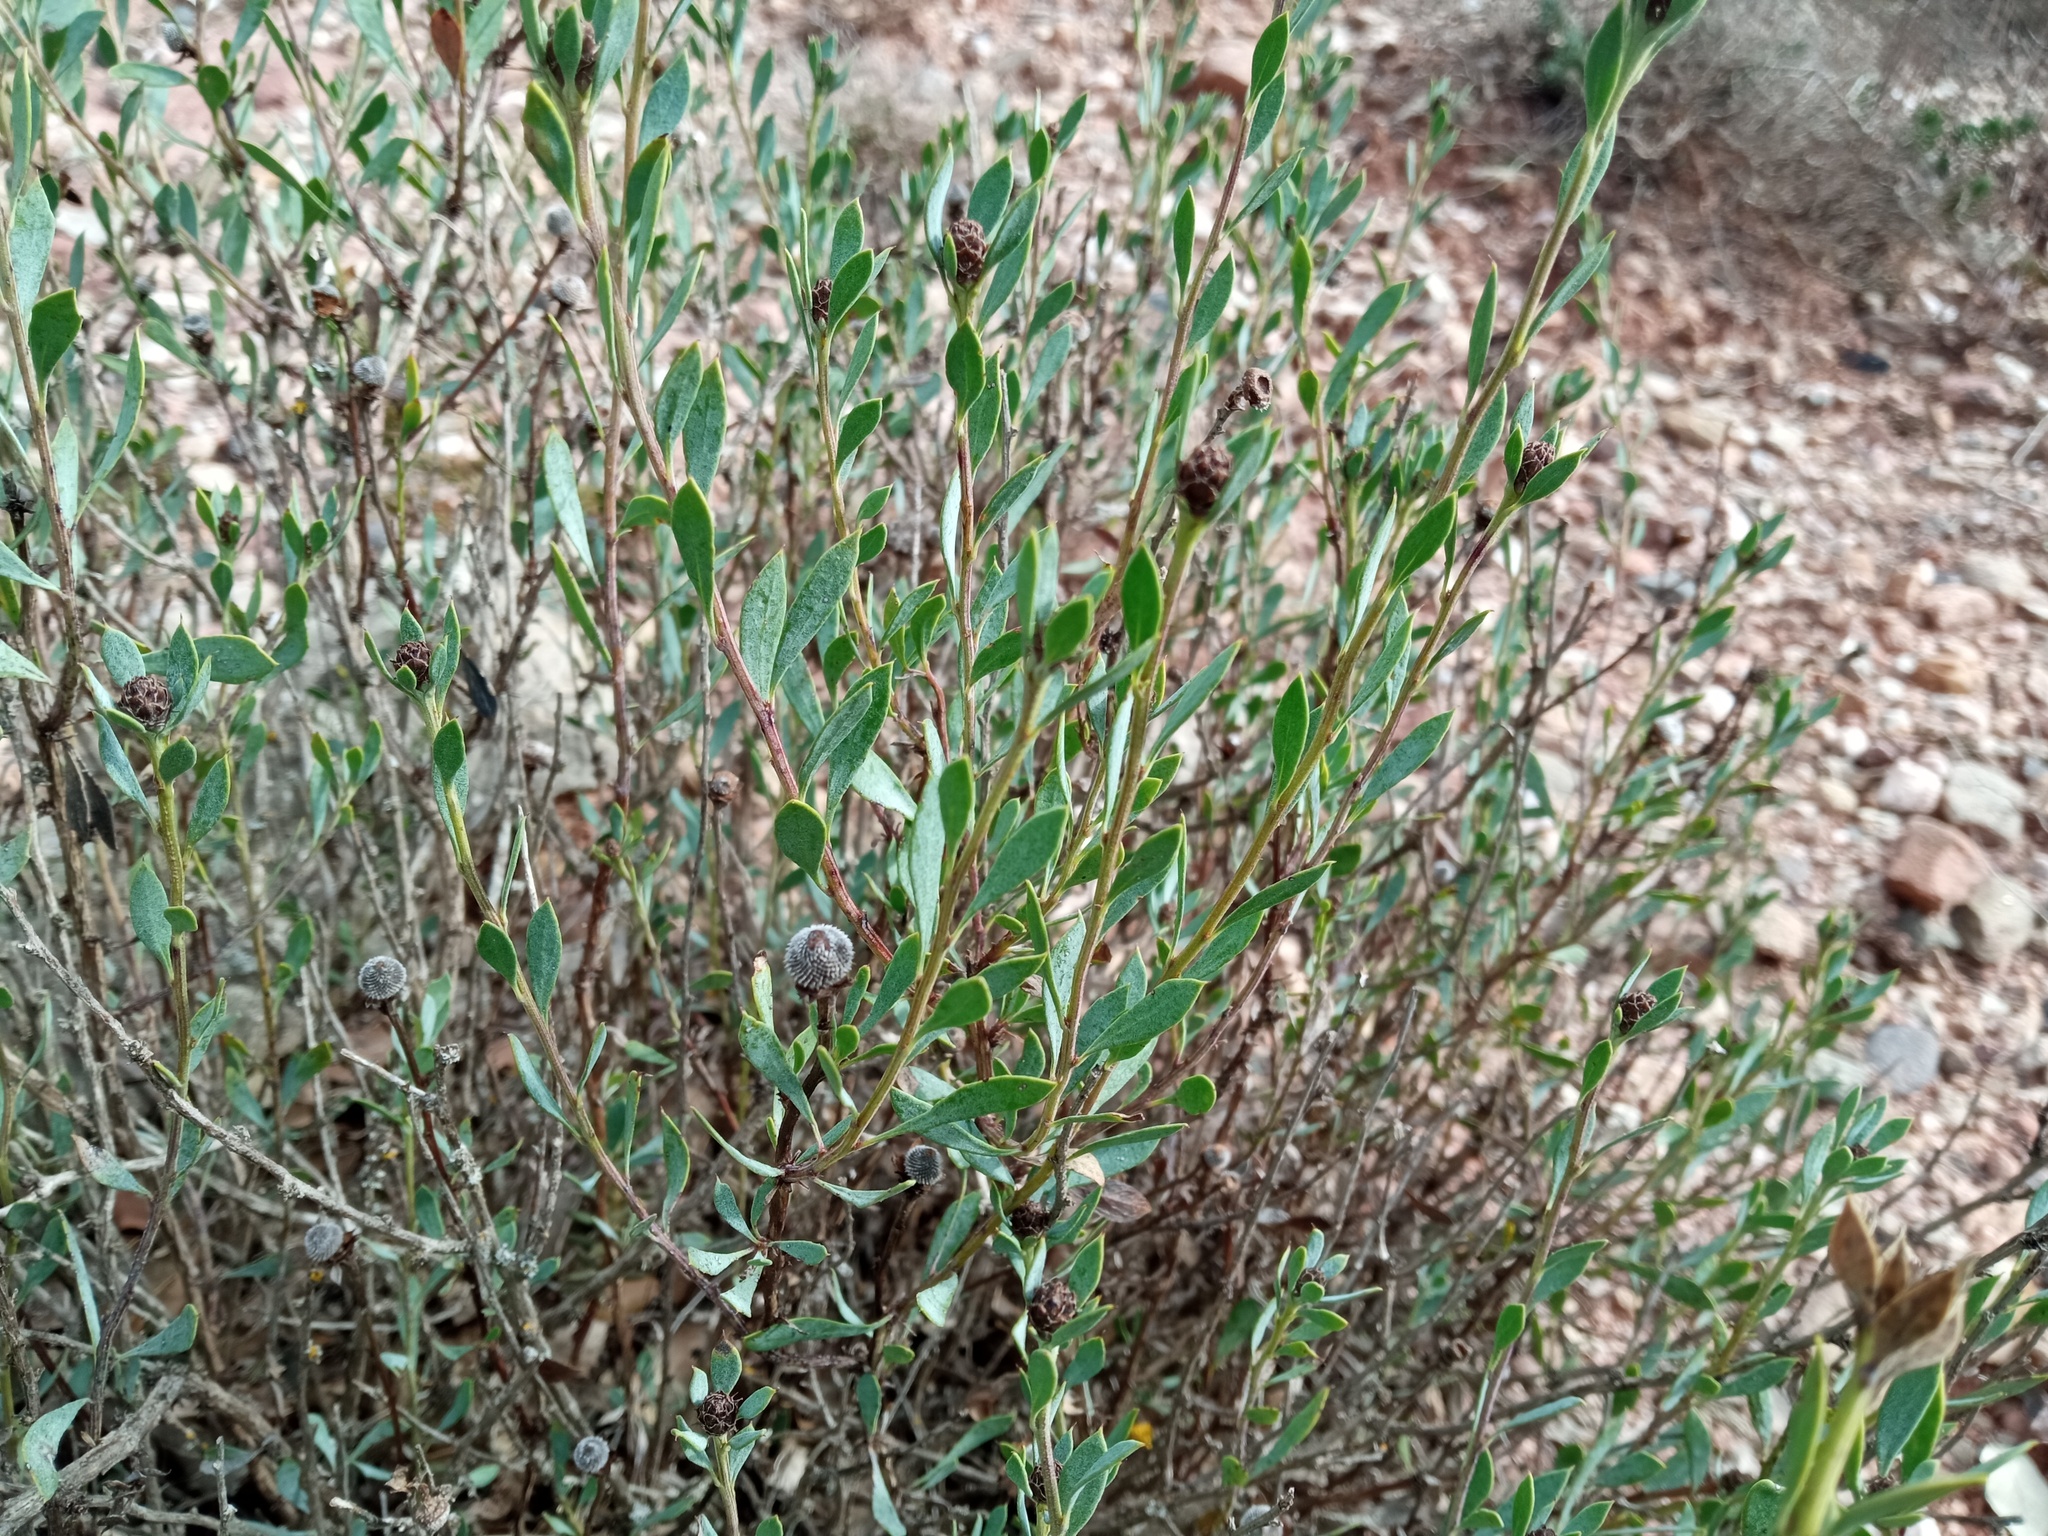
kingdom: Plantae
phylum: Tracheophyta
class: Magnoliopsida
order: Lamiales
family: Plantaginaceae
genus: Globularia
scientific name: Globularia alypum
